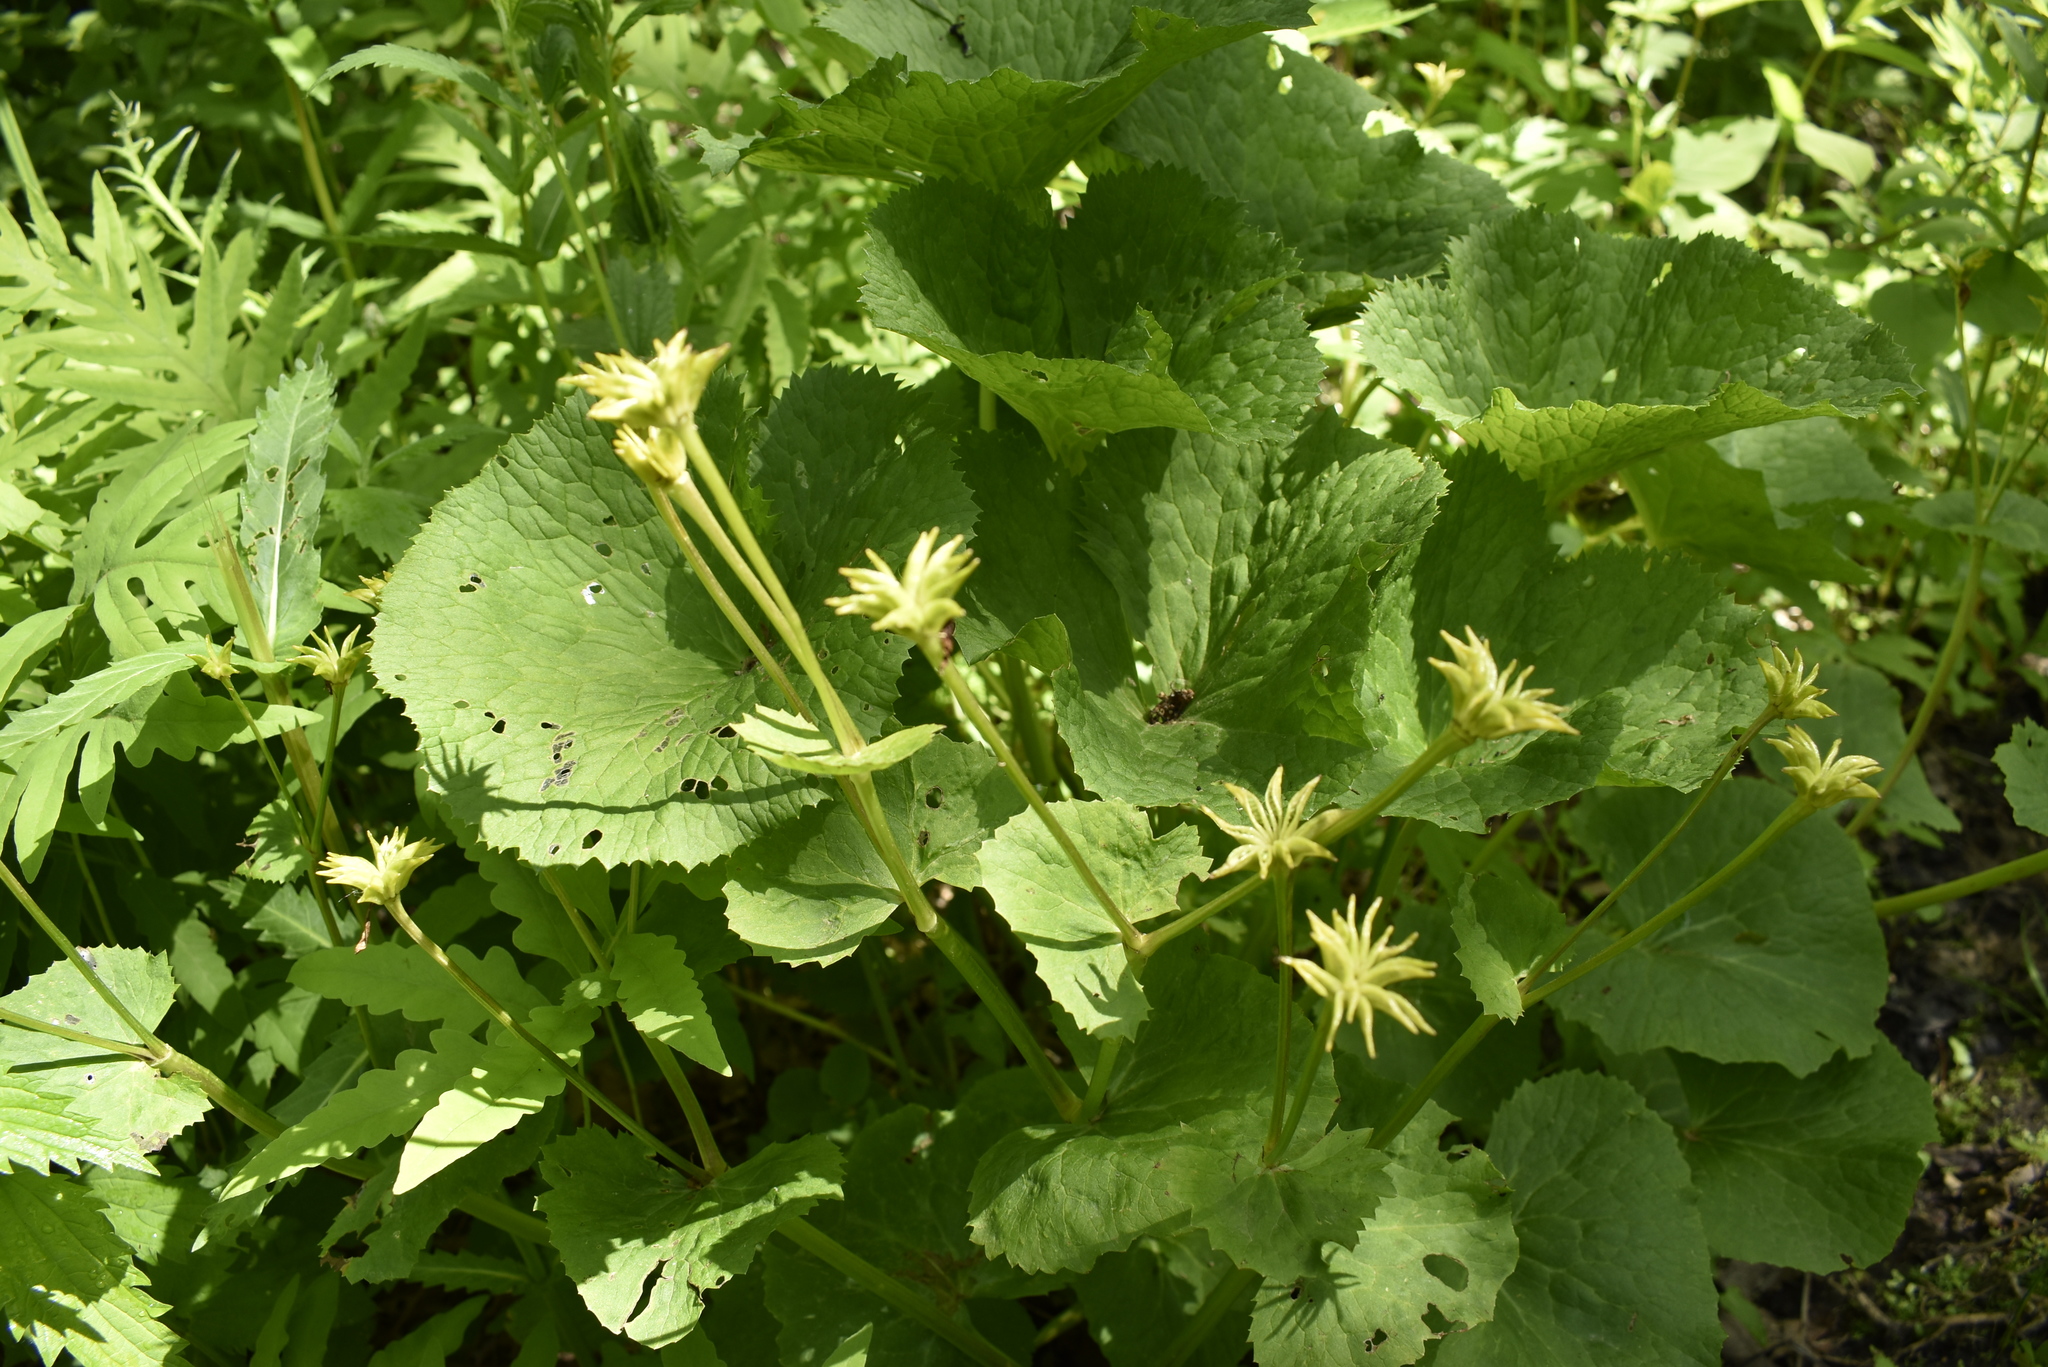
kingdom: Plantae
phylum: Tracheophyta
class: Magnoliopsida
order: Ranunculales
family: Ranunculaceae
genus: Caltha
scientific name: Caltha palustris
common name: Marsh marigold
